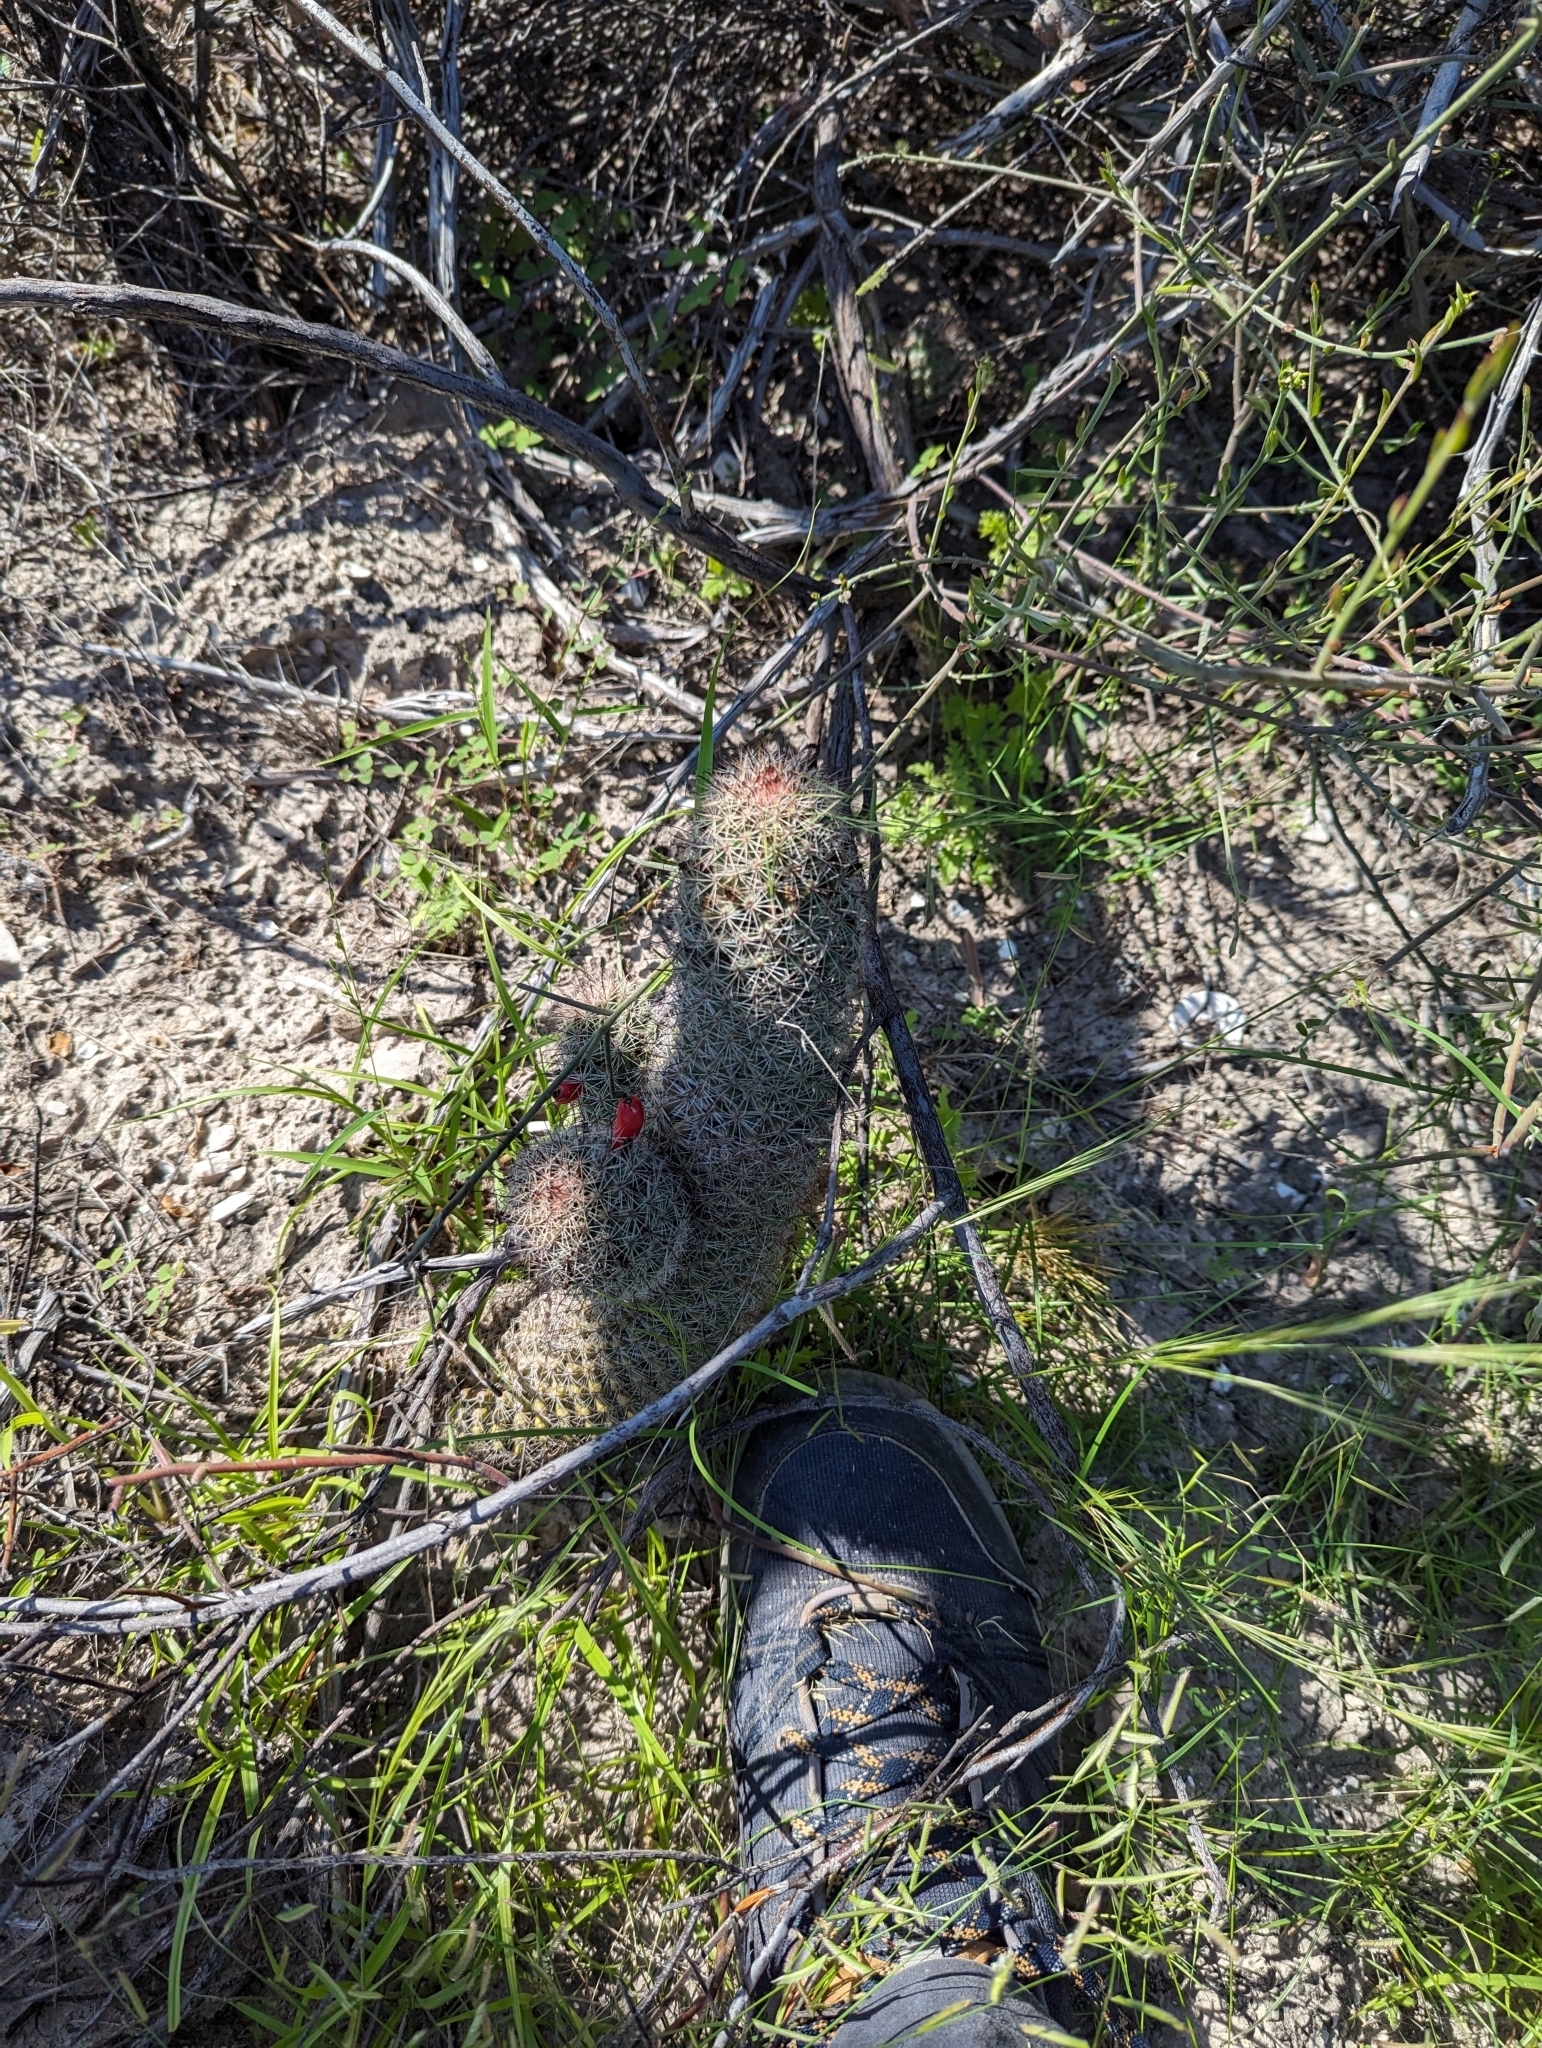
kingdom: Plantae
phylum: Tracheophyta
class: Magnoliopsida
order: Caryophyllales
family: Cactaceae
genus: Cochemiea
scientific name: Cochemiea dioica
